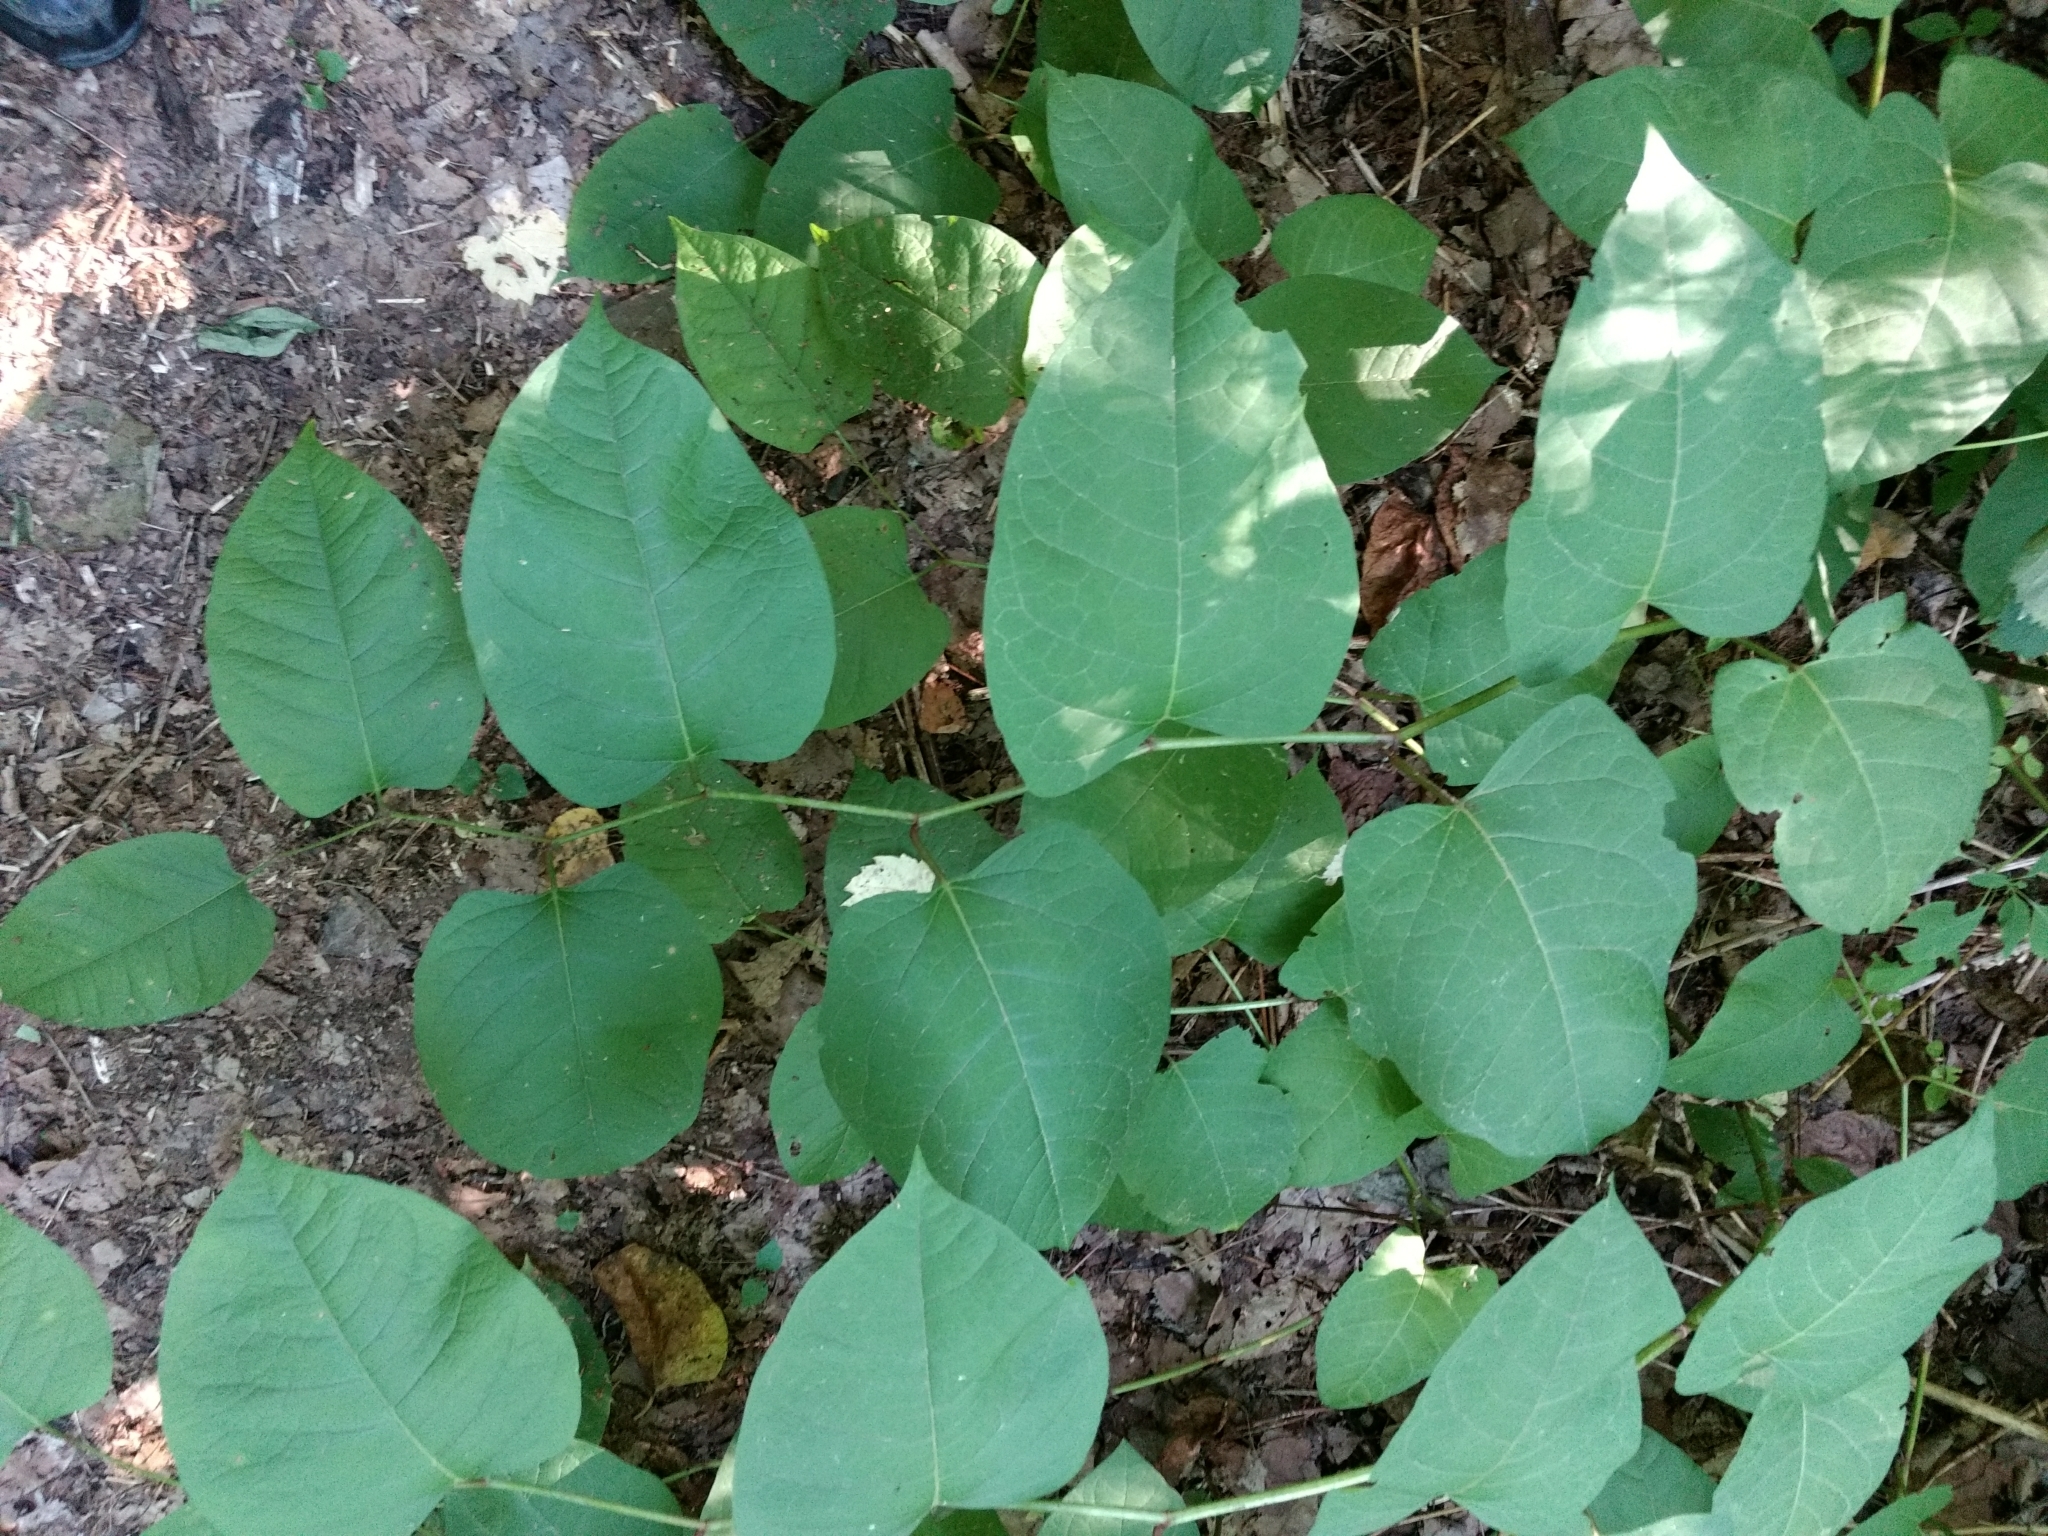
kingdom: Plantae
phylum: Tracheophyta
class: Magnoliopsida
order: Caryophyllales
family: Polygonaceae
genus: Reynoutria
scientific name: Reynoutria bohemica
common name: Bohemian knotweed
